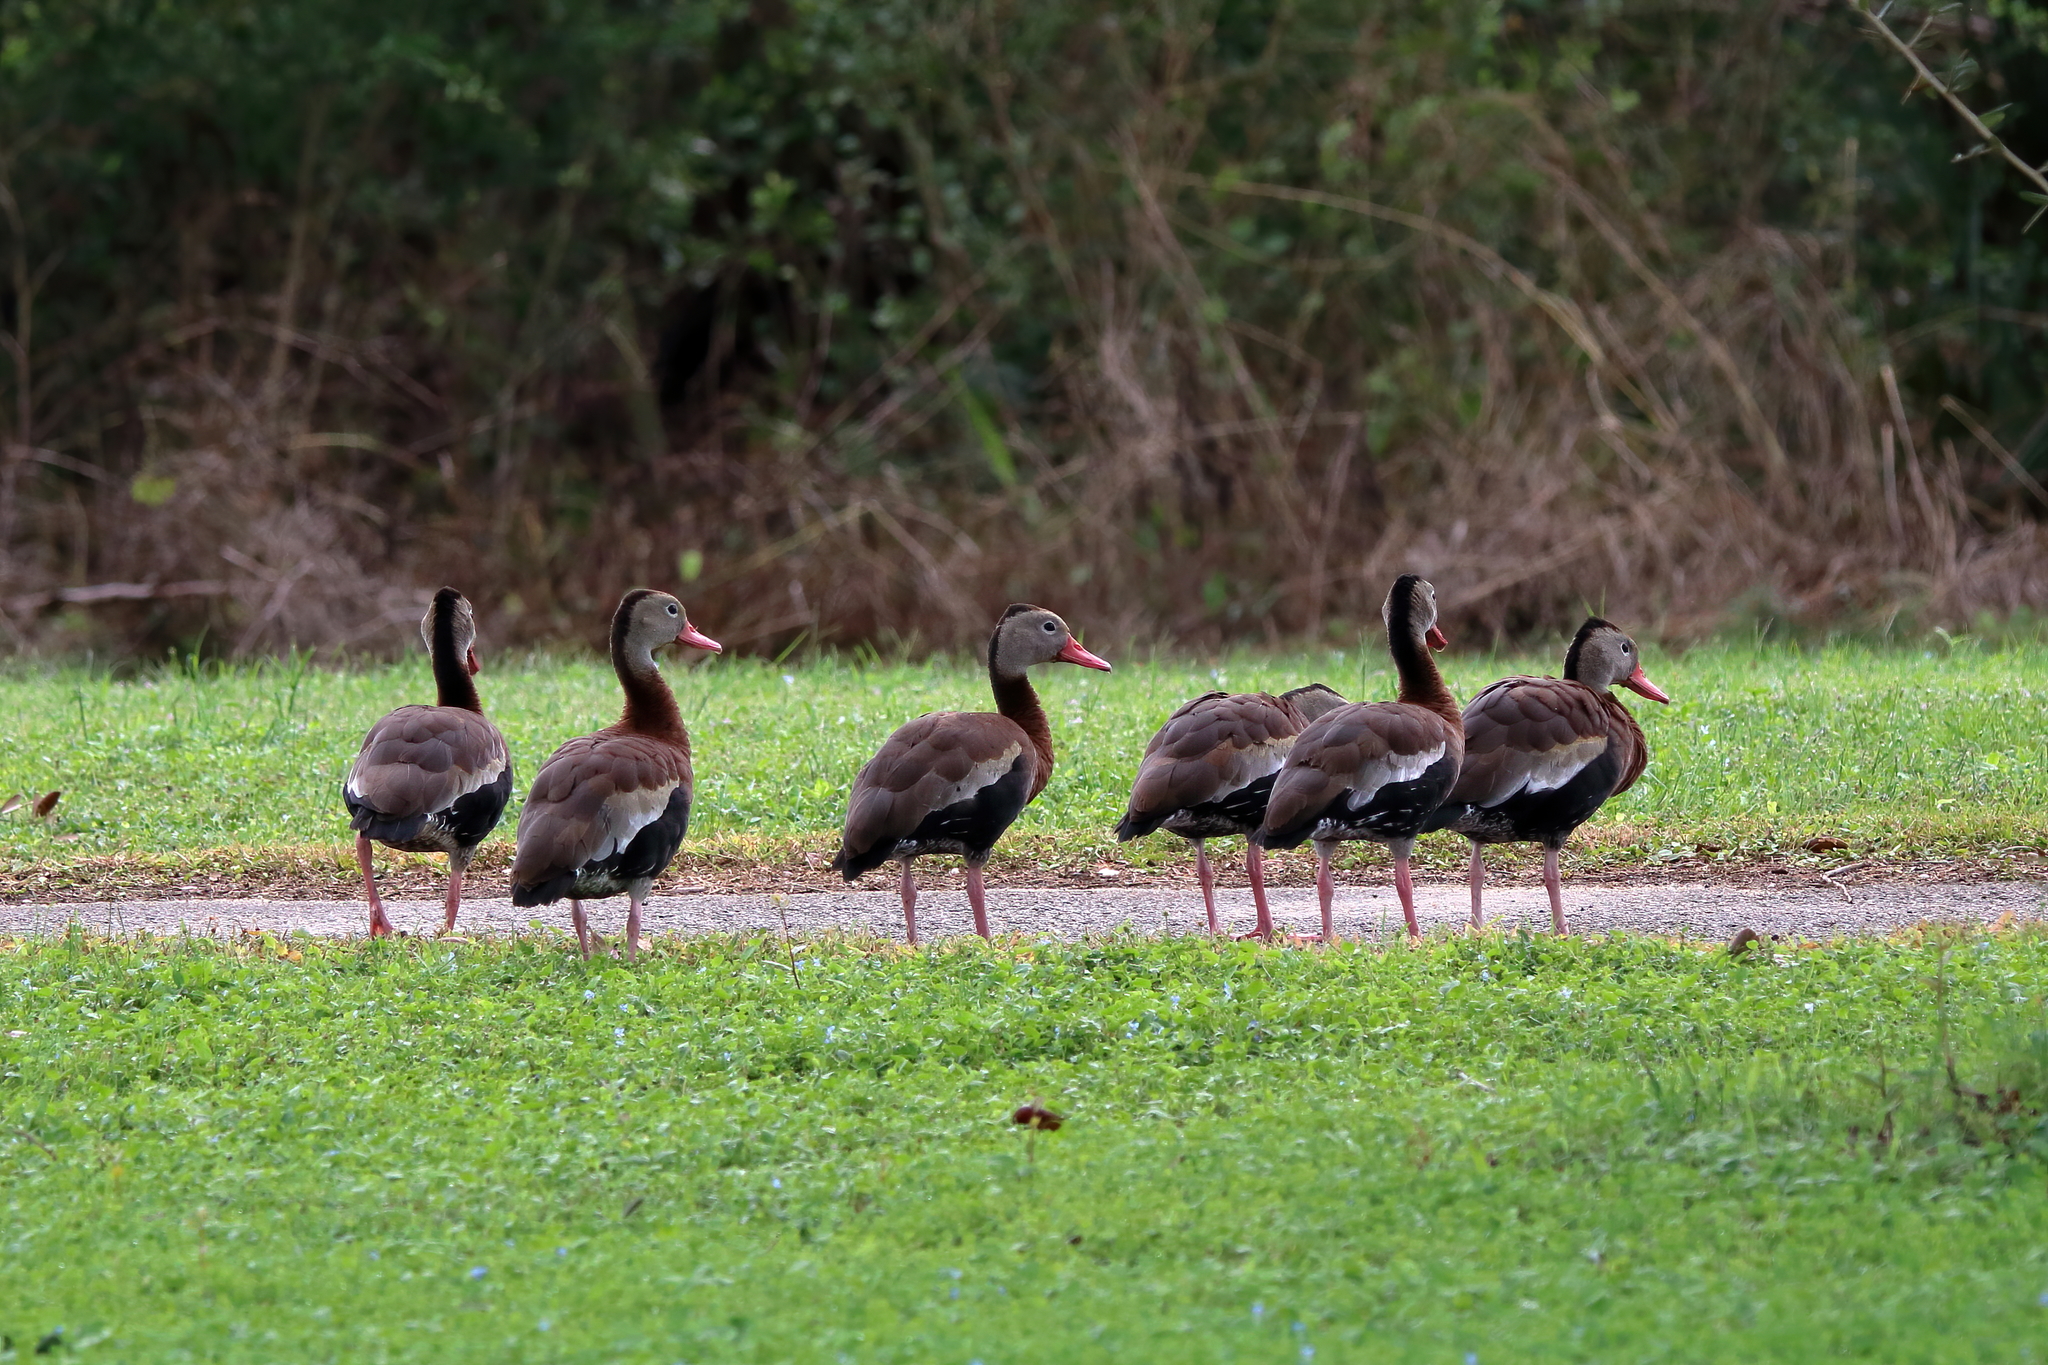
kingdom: Animalia
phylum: Chordata
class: Aves
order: Anseriformes
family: Anatidae
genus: Dendrocygna
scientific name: Dendrocygna autumnalis
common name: Black-bellied whistling duck
